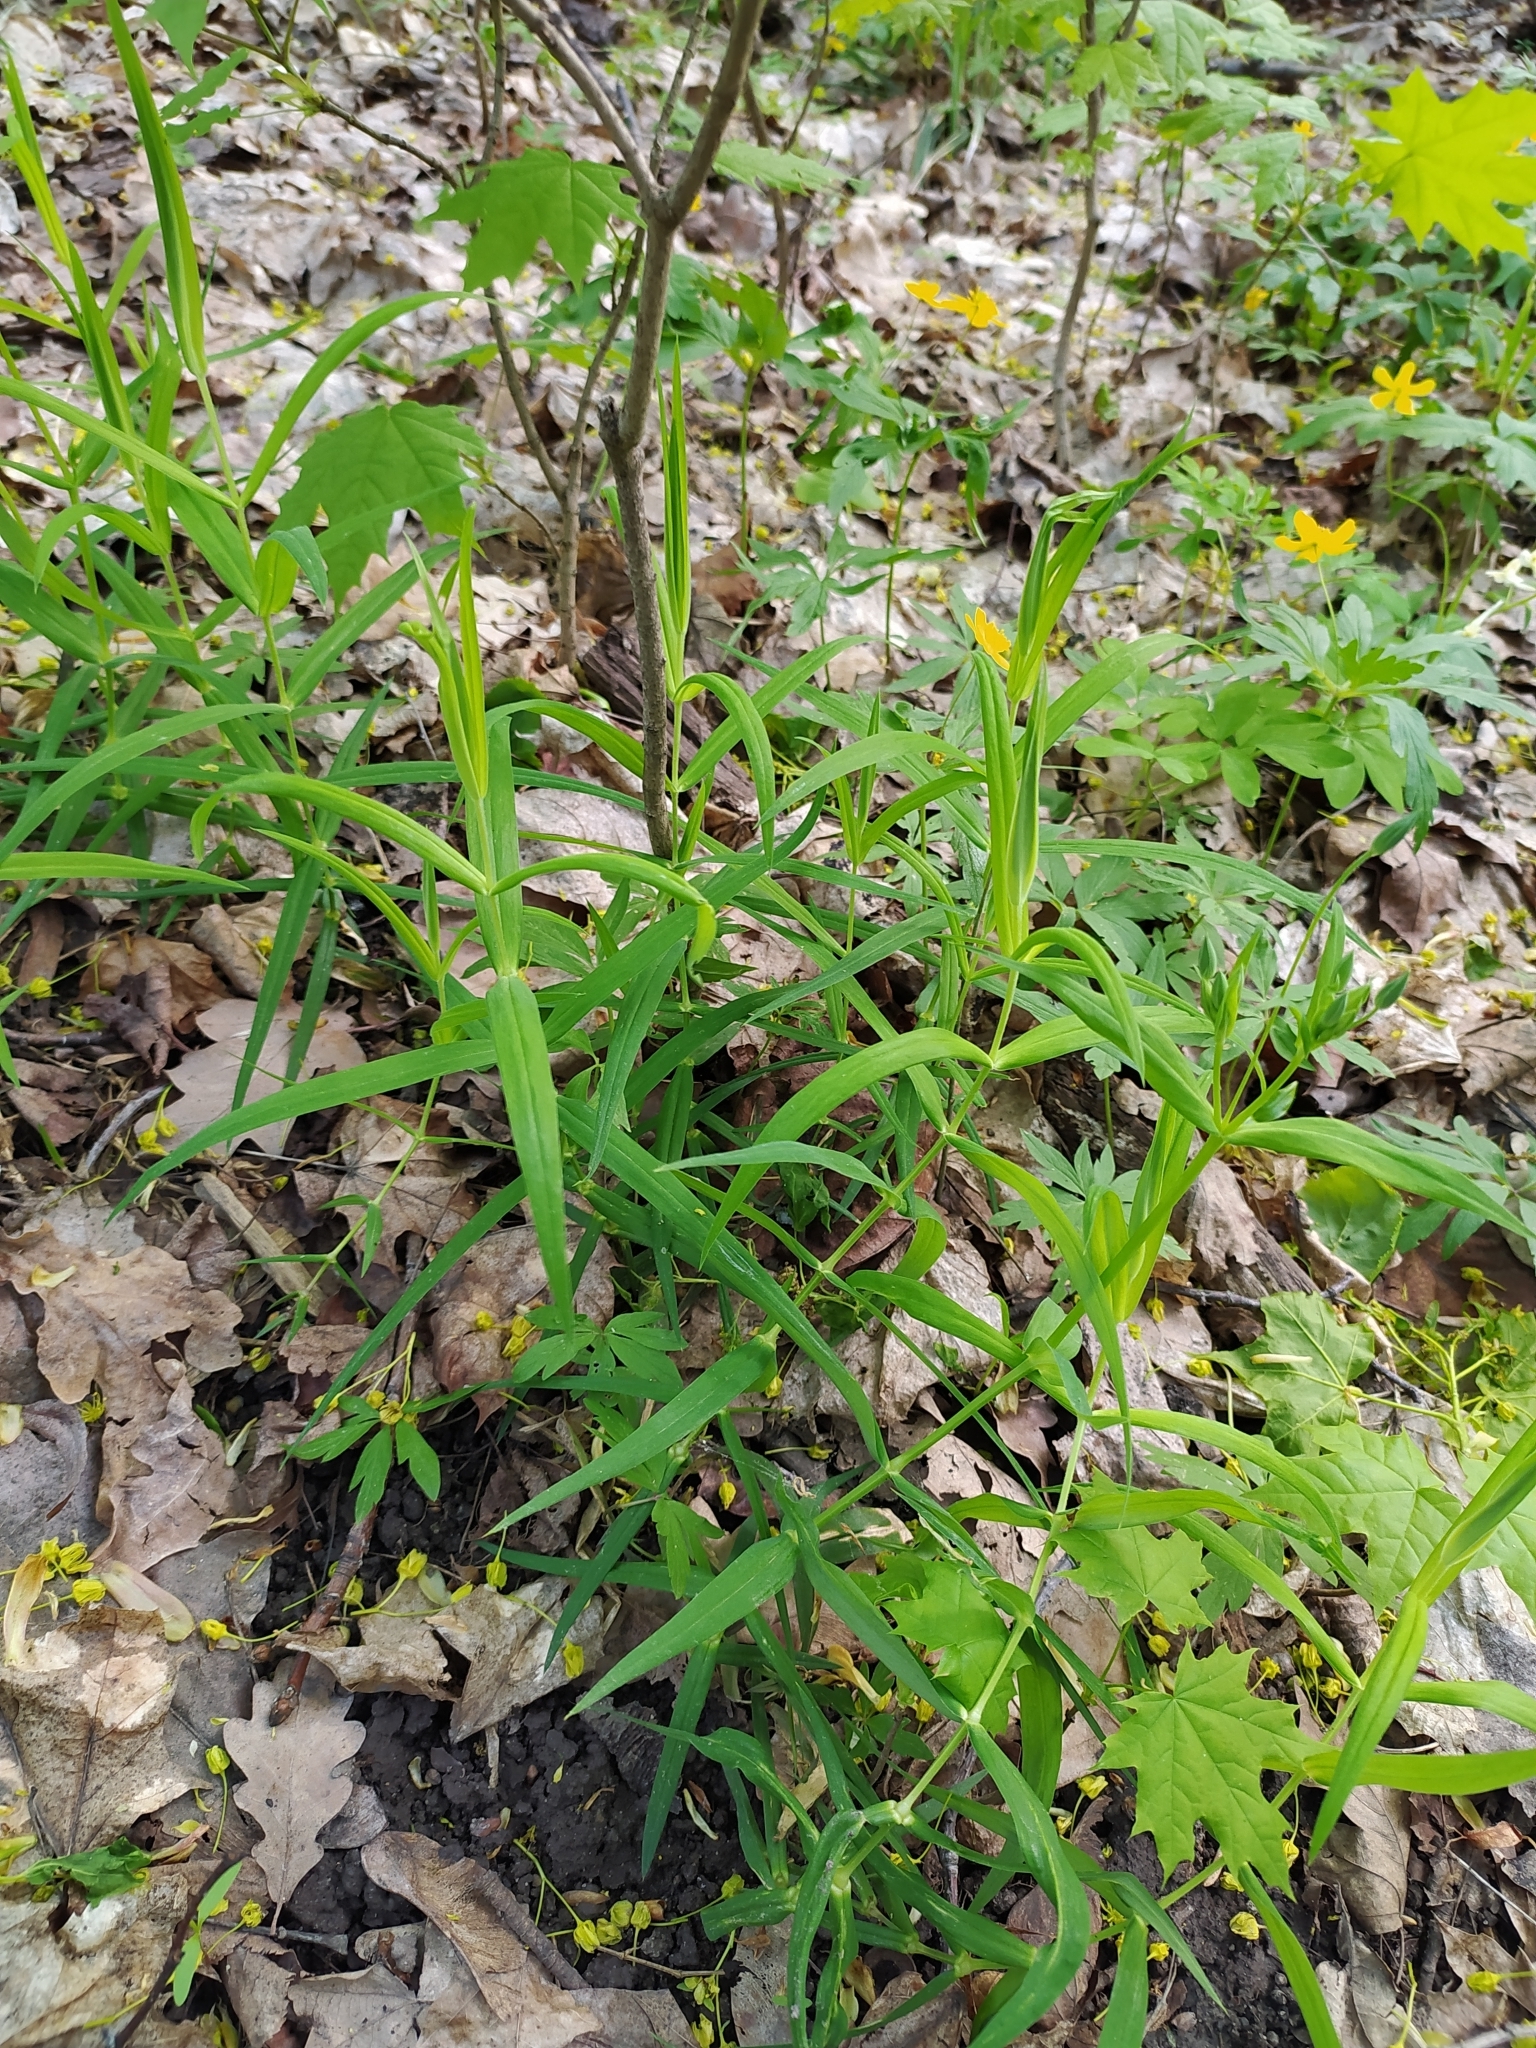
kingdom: Plantae
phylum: Tracheophyta
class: Magnoliopsida
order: Caryophyllales
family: Caryophyllaceae
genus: Rabelera
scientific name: Rabelera holostea
